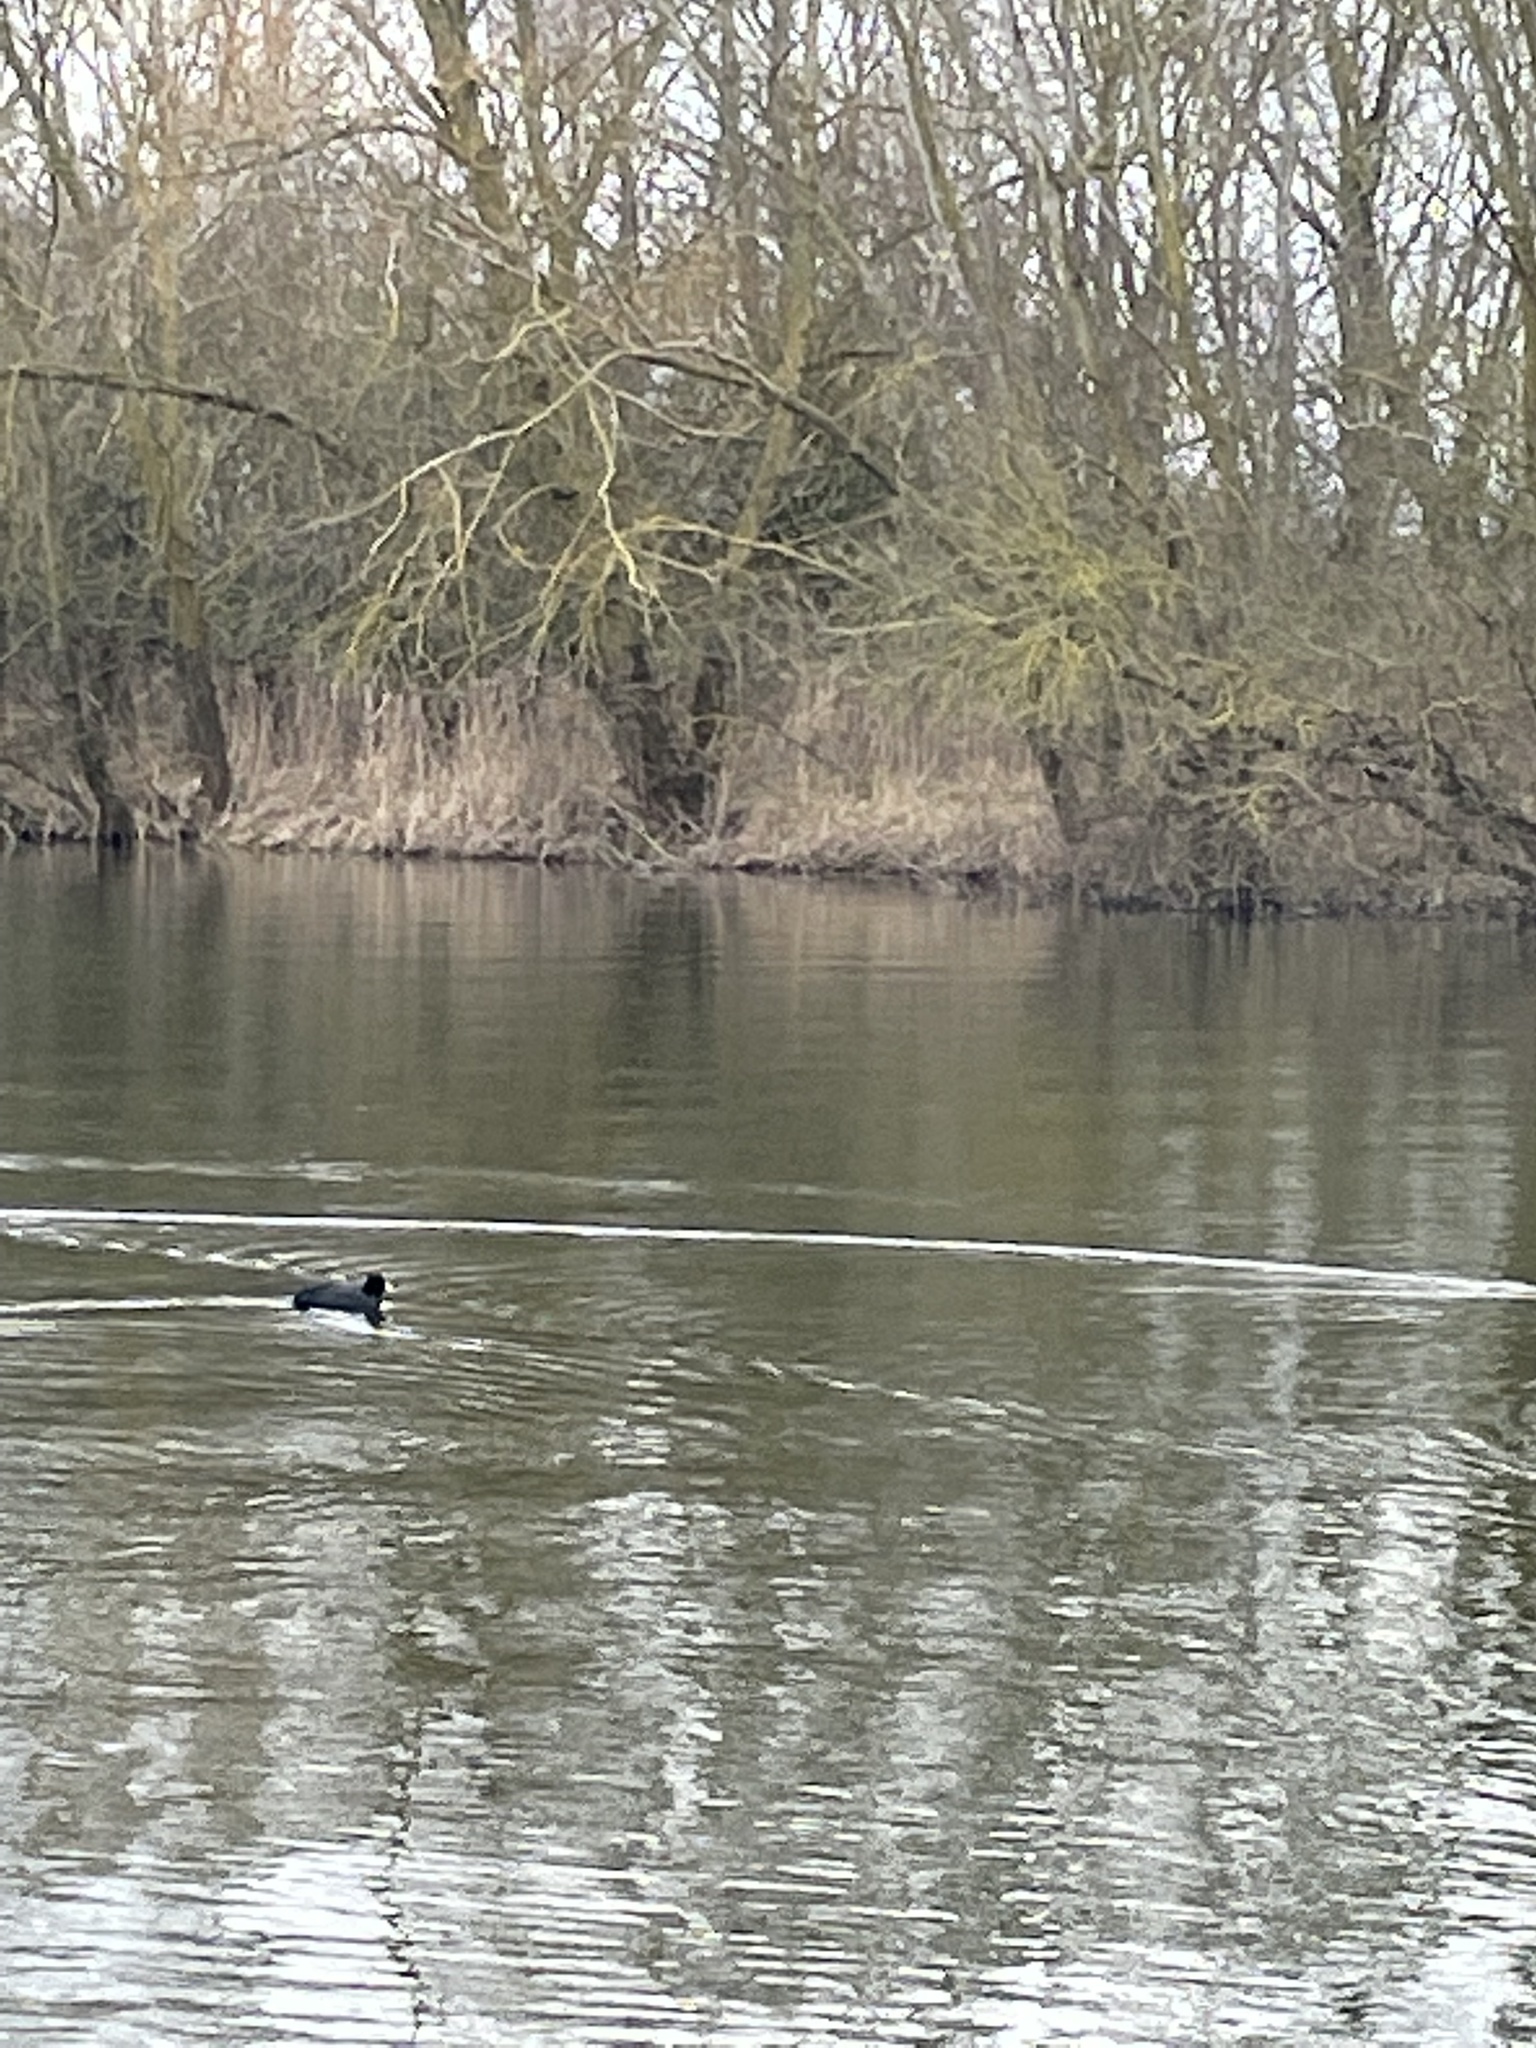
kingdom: Animalia
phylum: Chordata
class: Aves
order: Gruiformes
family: Rallidae
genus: Fulica
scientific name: Fulica atra
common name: Eurasian coot
